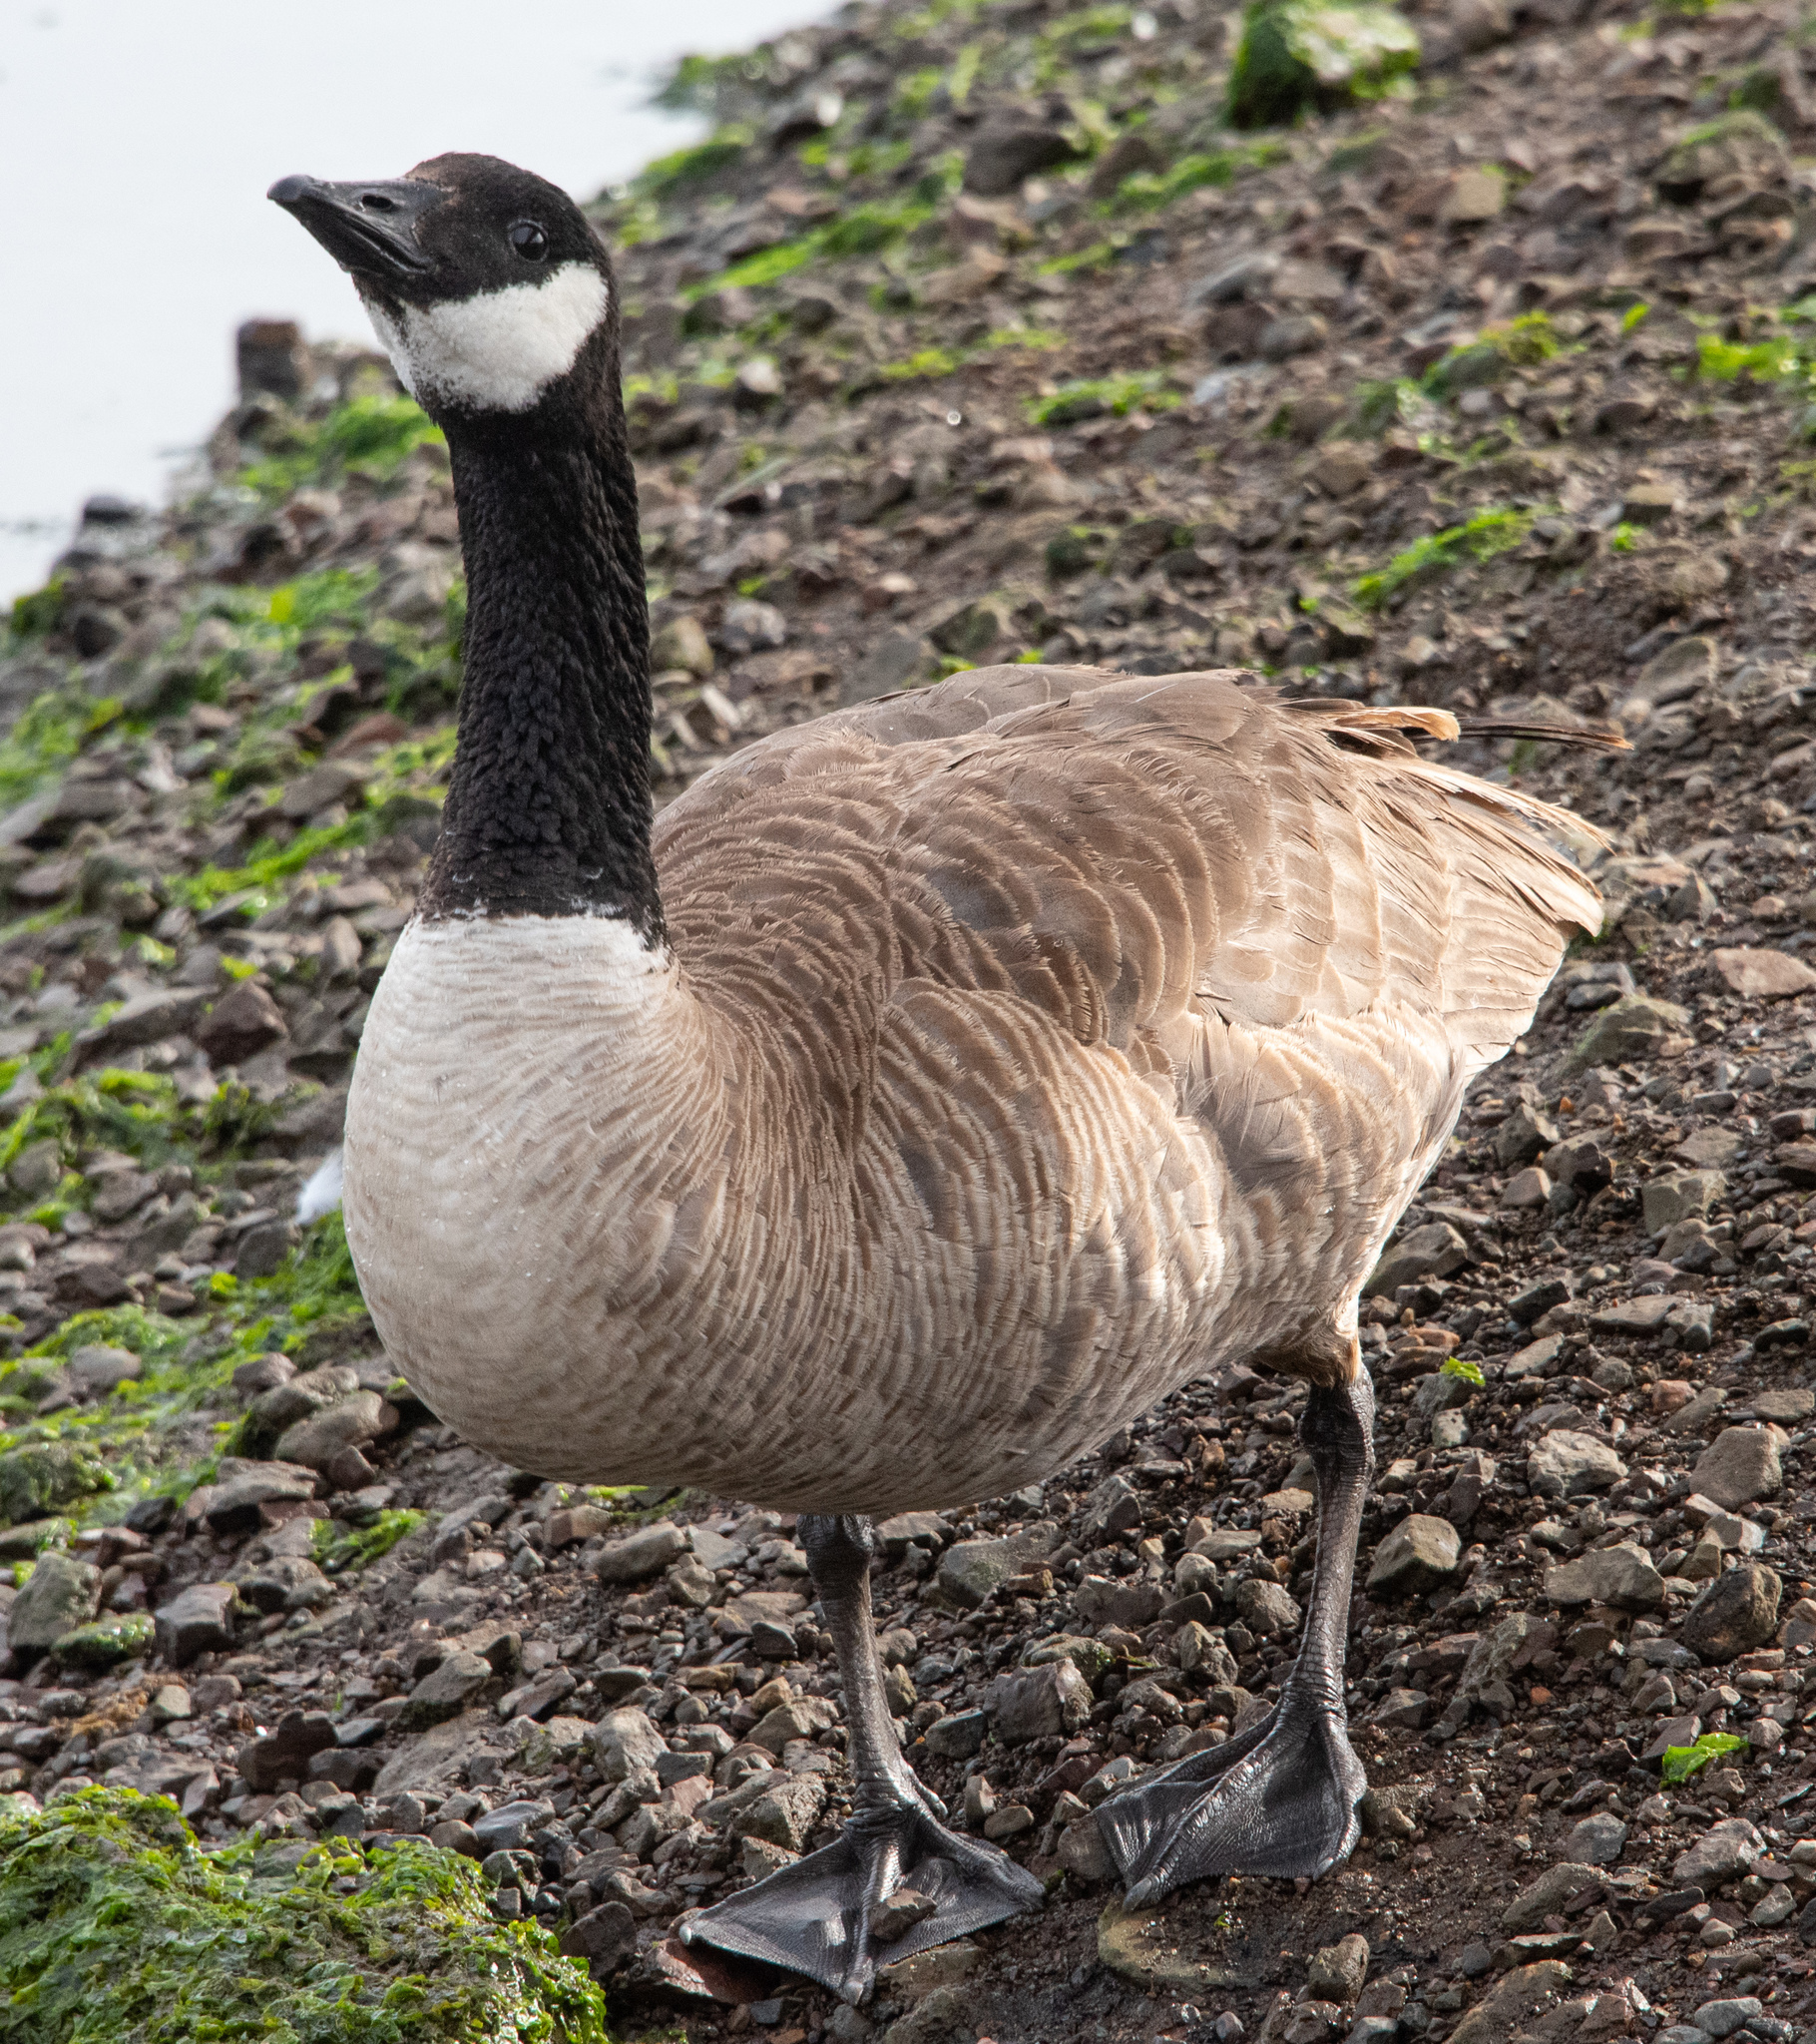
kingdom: Animalia
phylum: Chordata
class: Aves
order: Anseriformes
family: Anatidae
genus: Branta
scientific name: Branta canadensis
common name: Canada goose
